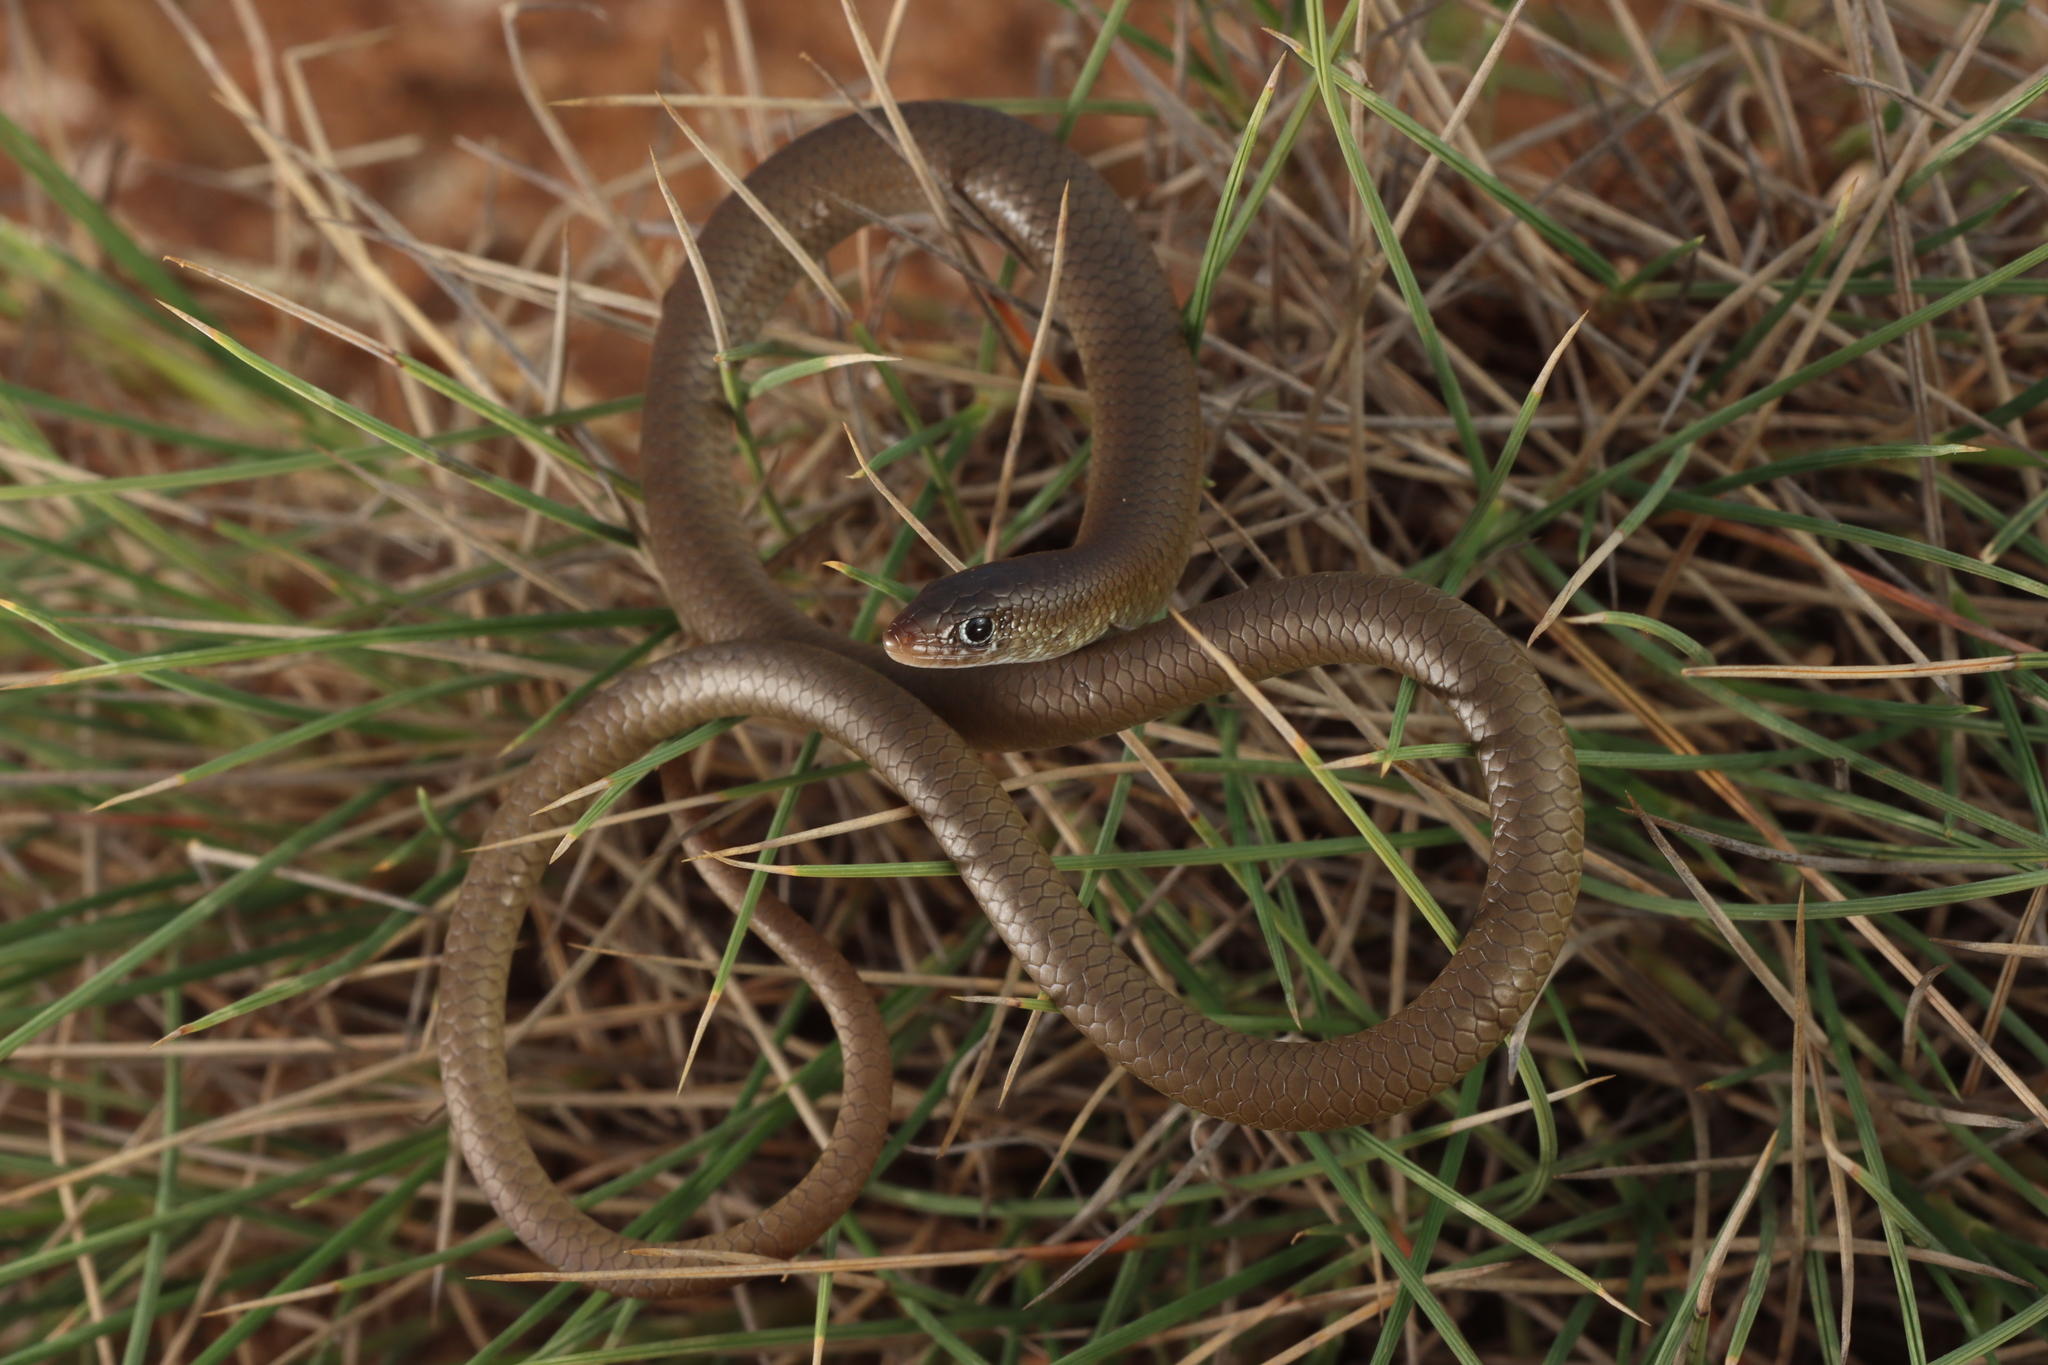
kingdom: Animalia
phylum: Chordata
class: Squamata
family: Pygopodidae
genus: Delma
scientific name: Delma butleri
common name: Butler's legless lizard
